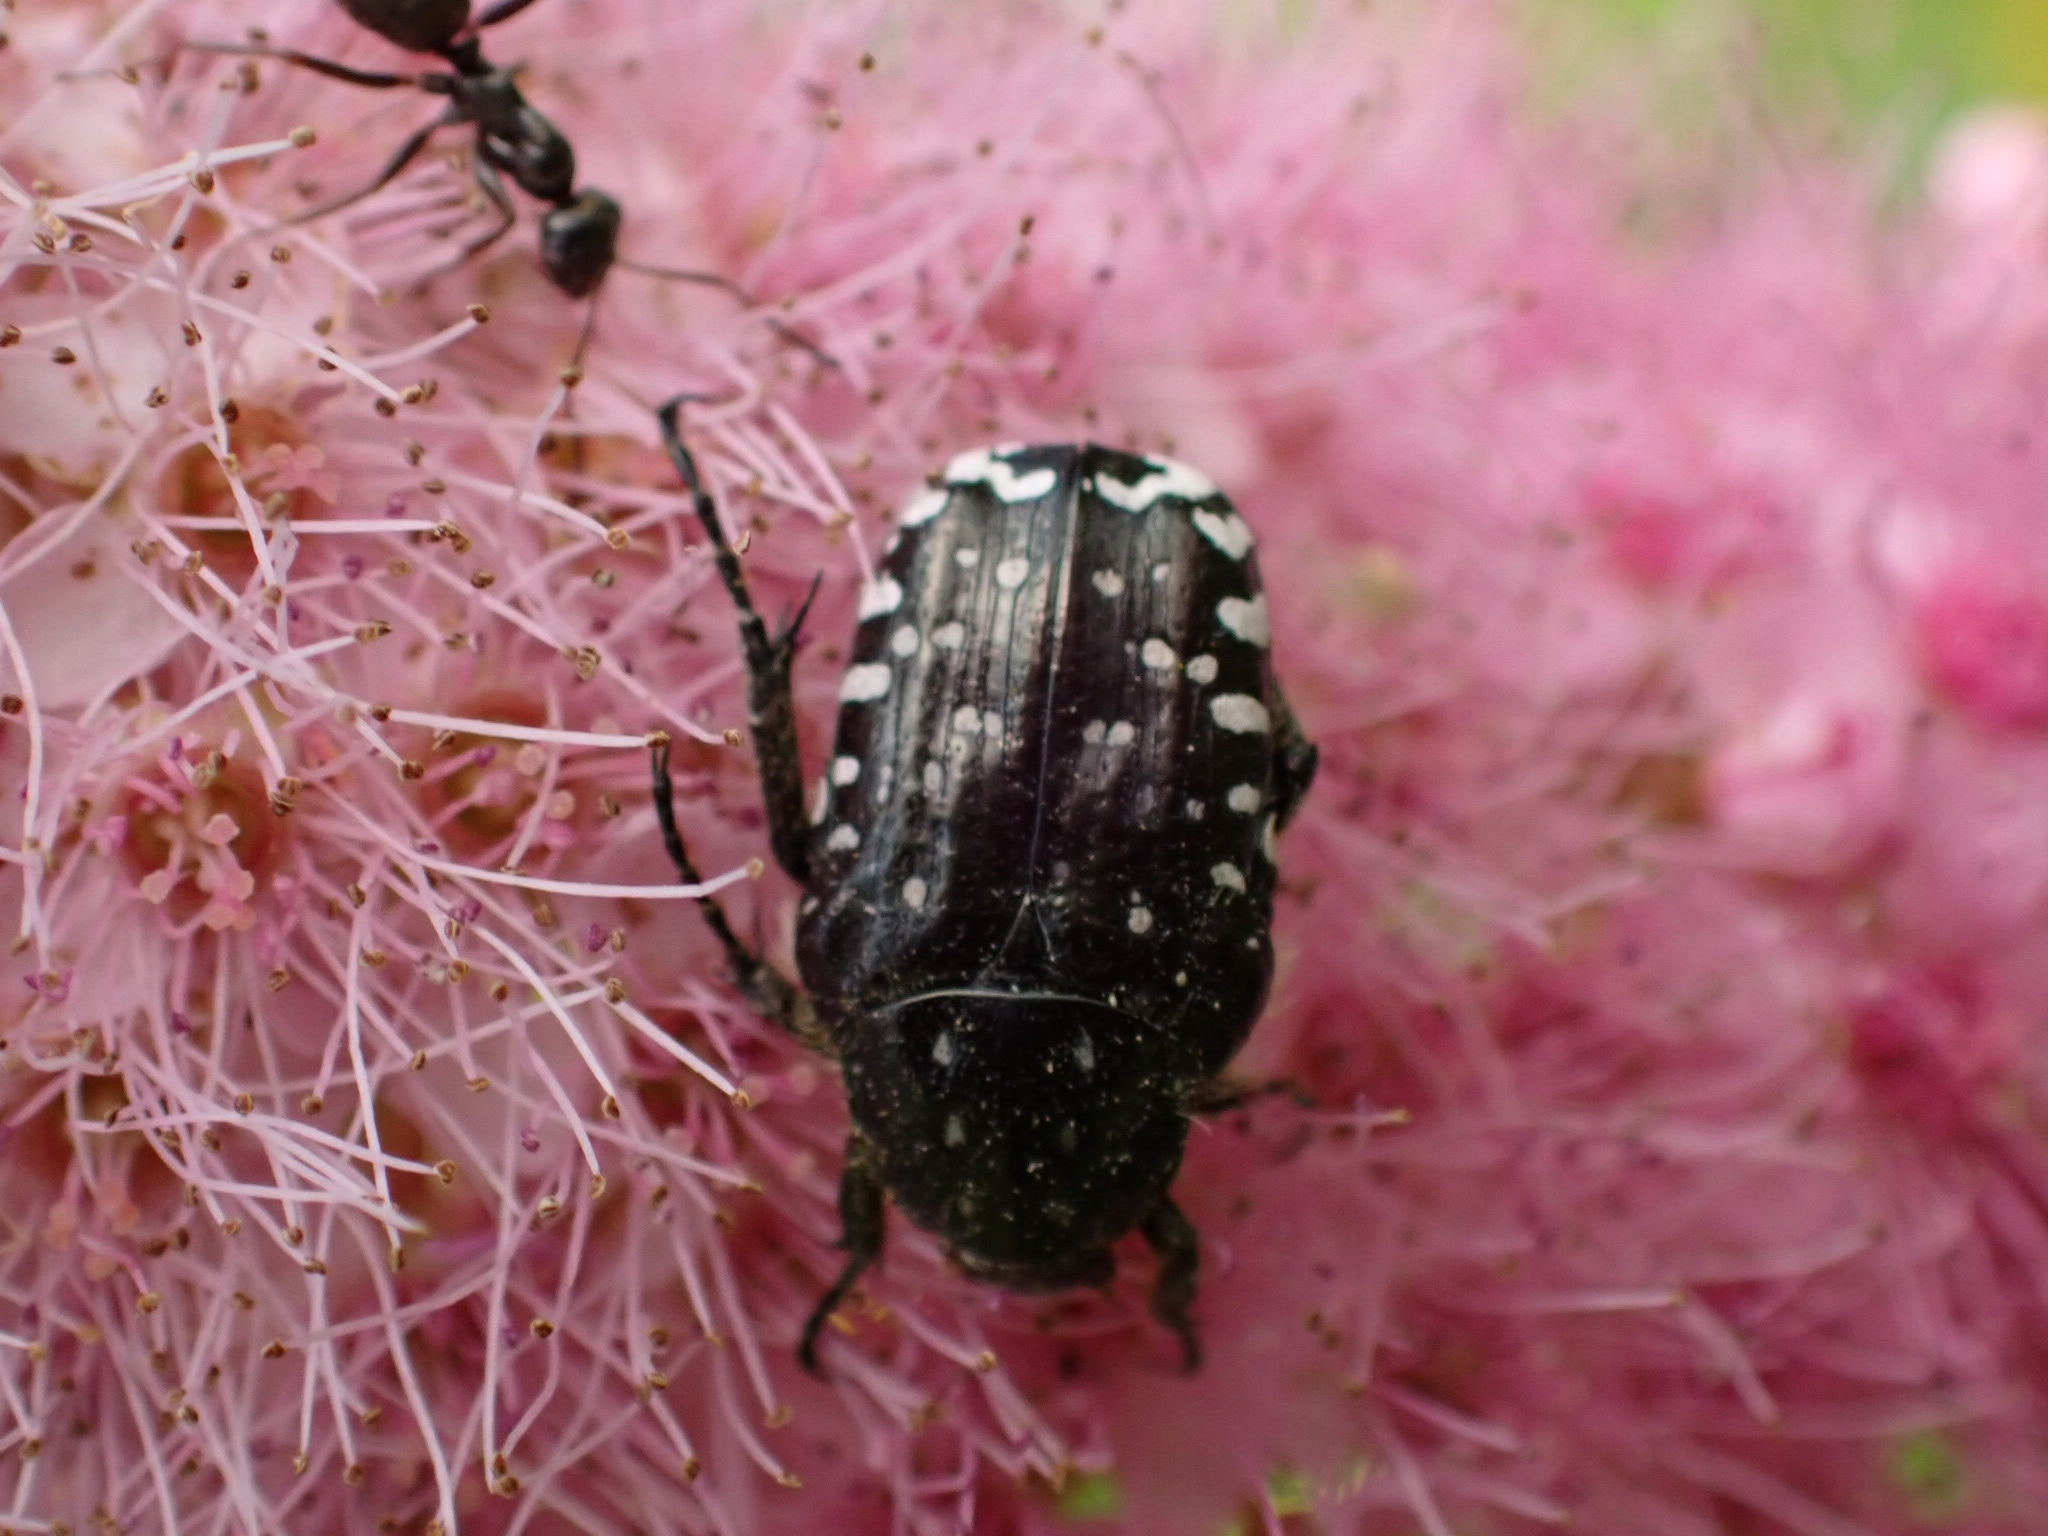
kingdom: Animalia
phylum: Arthropoda
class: Insecta
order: Coleoptera
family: Scarabaeidae
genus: Oxythyrea
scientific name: Oxythyrea funesta
